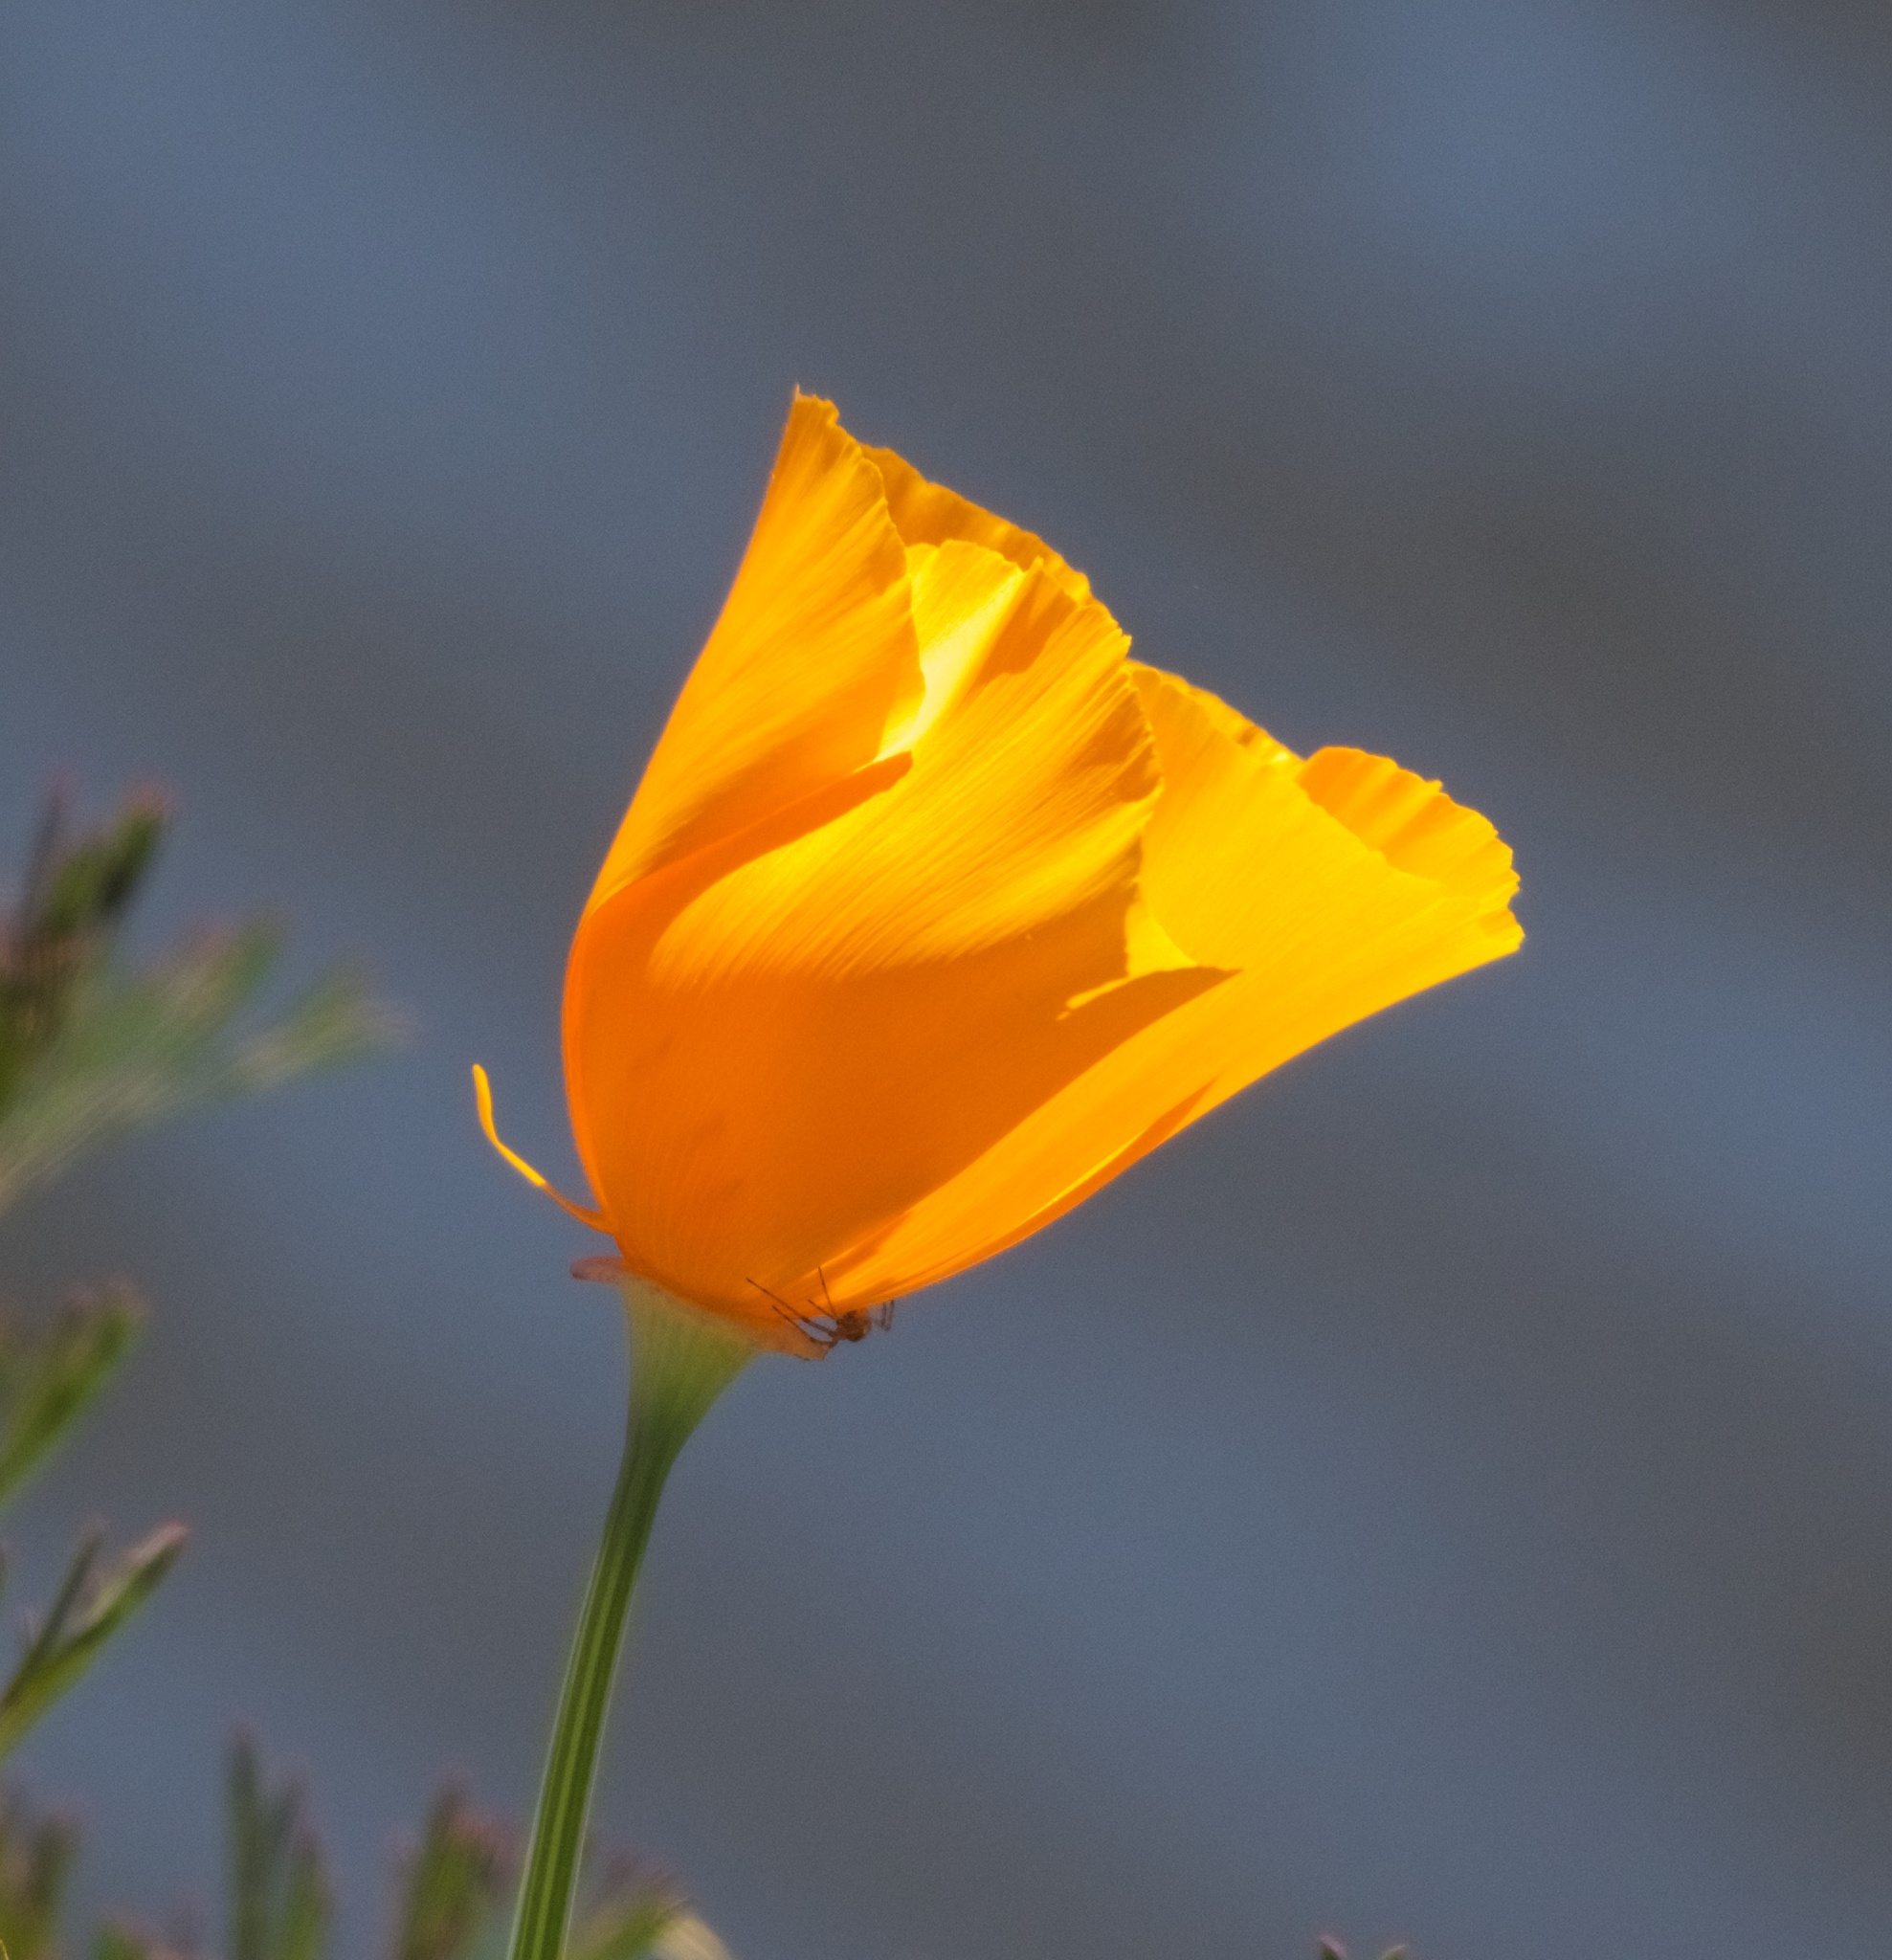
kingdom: Plantae
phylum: Tracheophyta
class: Magnoliopsida
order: Ranunculales
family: Papaveraceae
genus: Eschscholzia
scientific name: Eschscholzia californica
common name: California poppy
